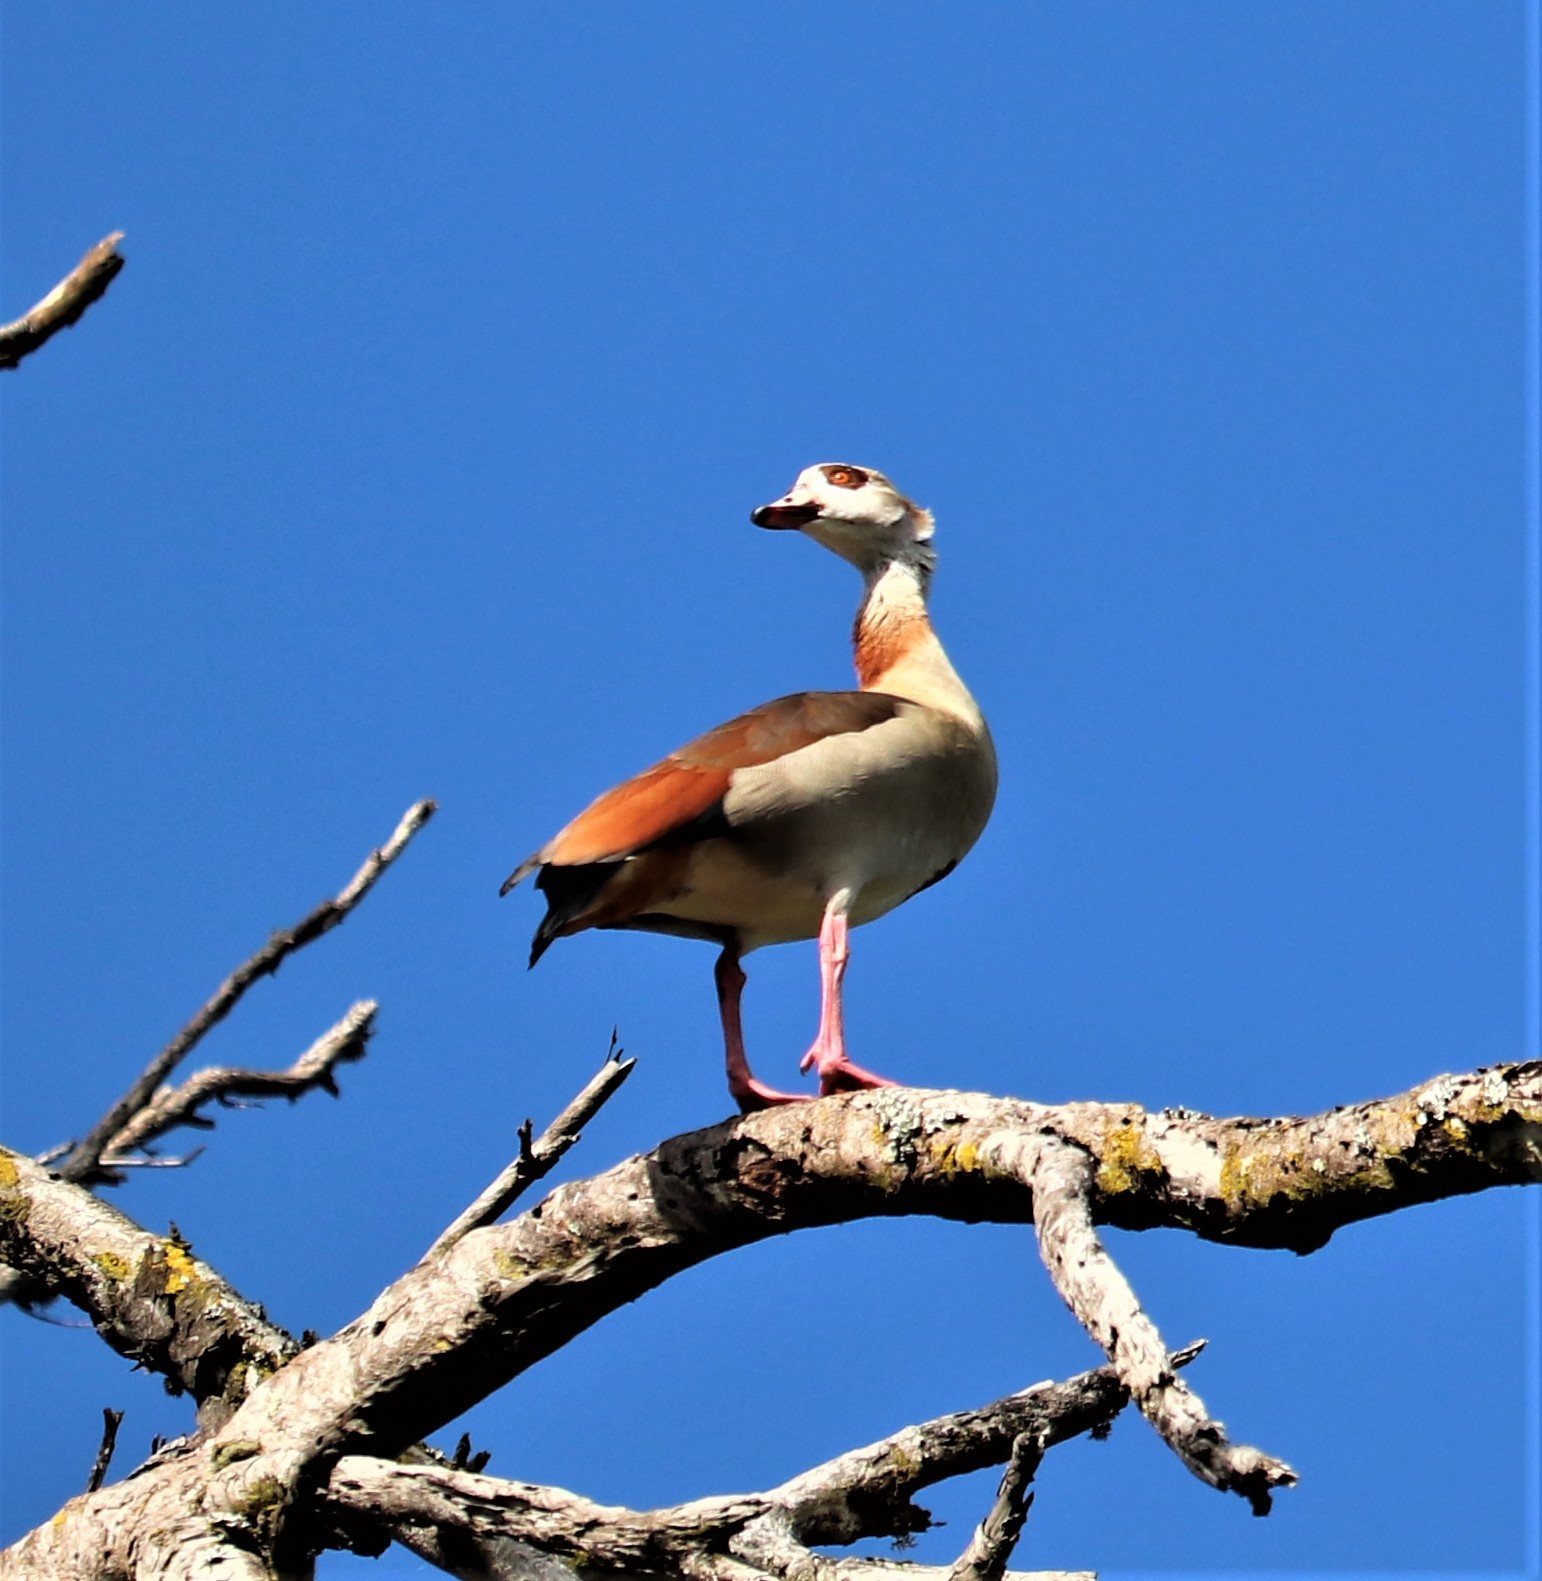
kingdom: Animalia
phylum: Chordata
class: Aves
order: Anseriformes
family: Anatidae
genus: Alopochen
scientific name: Alopochen aegyptiaca
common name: Egyptian goose
